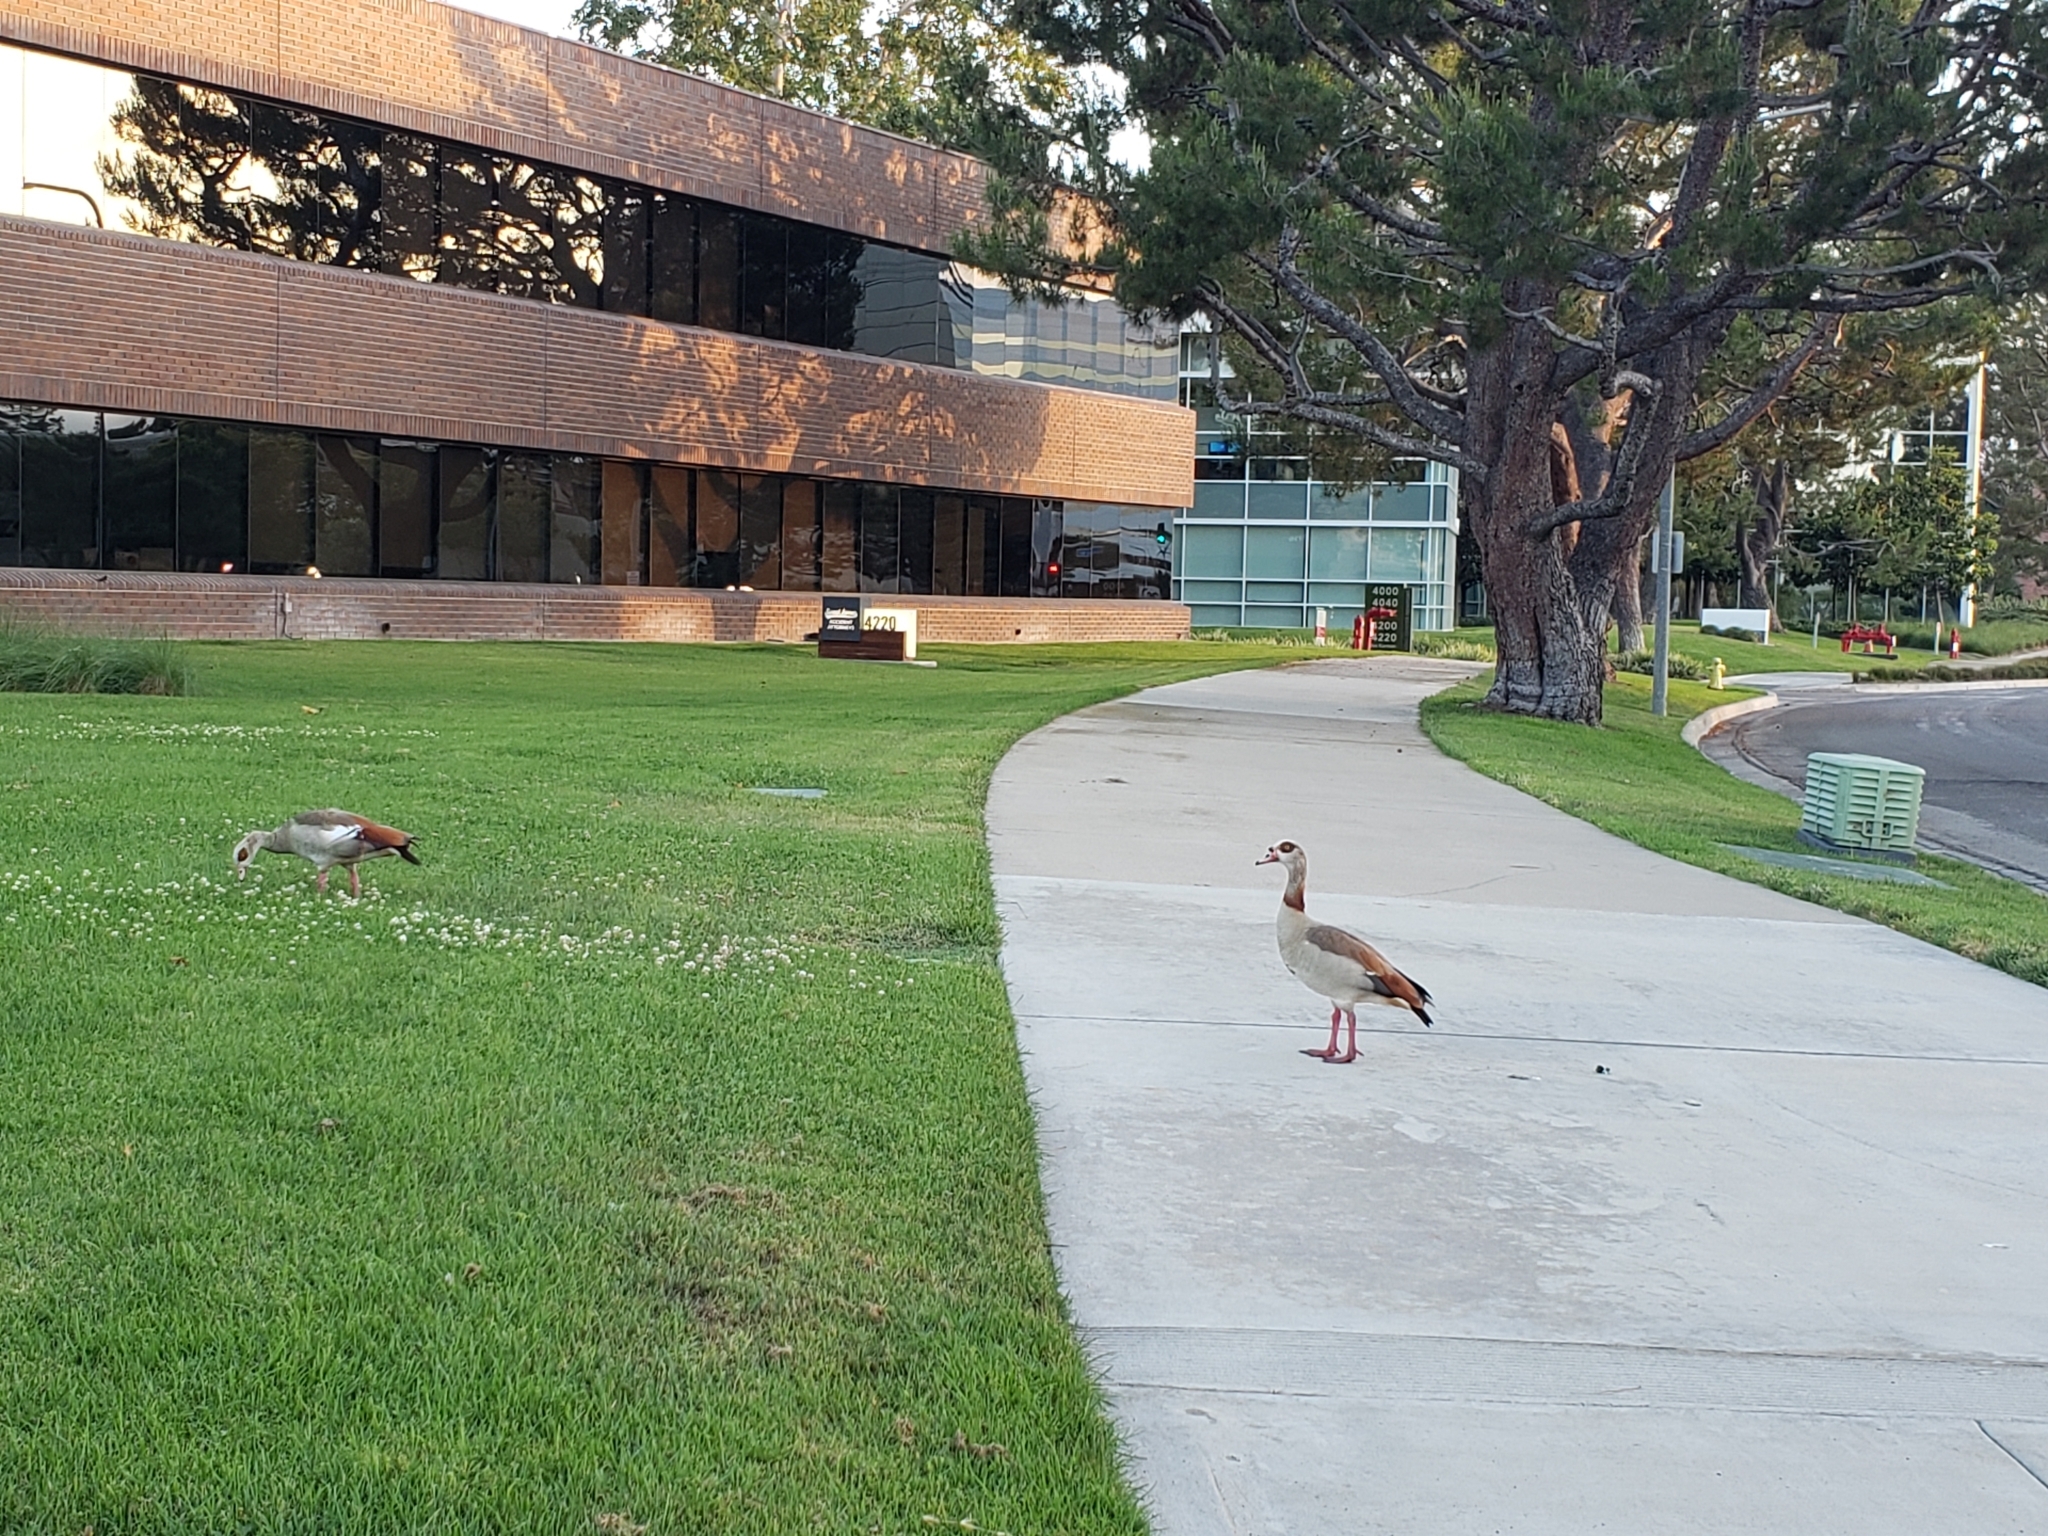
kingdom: Animalia
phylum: Chordata
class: Aves
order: Anseriformes
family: Anatidae
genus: Alopochen
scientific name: Alopochen aegyptiaca
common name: Egyptian goose
